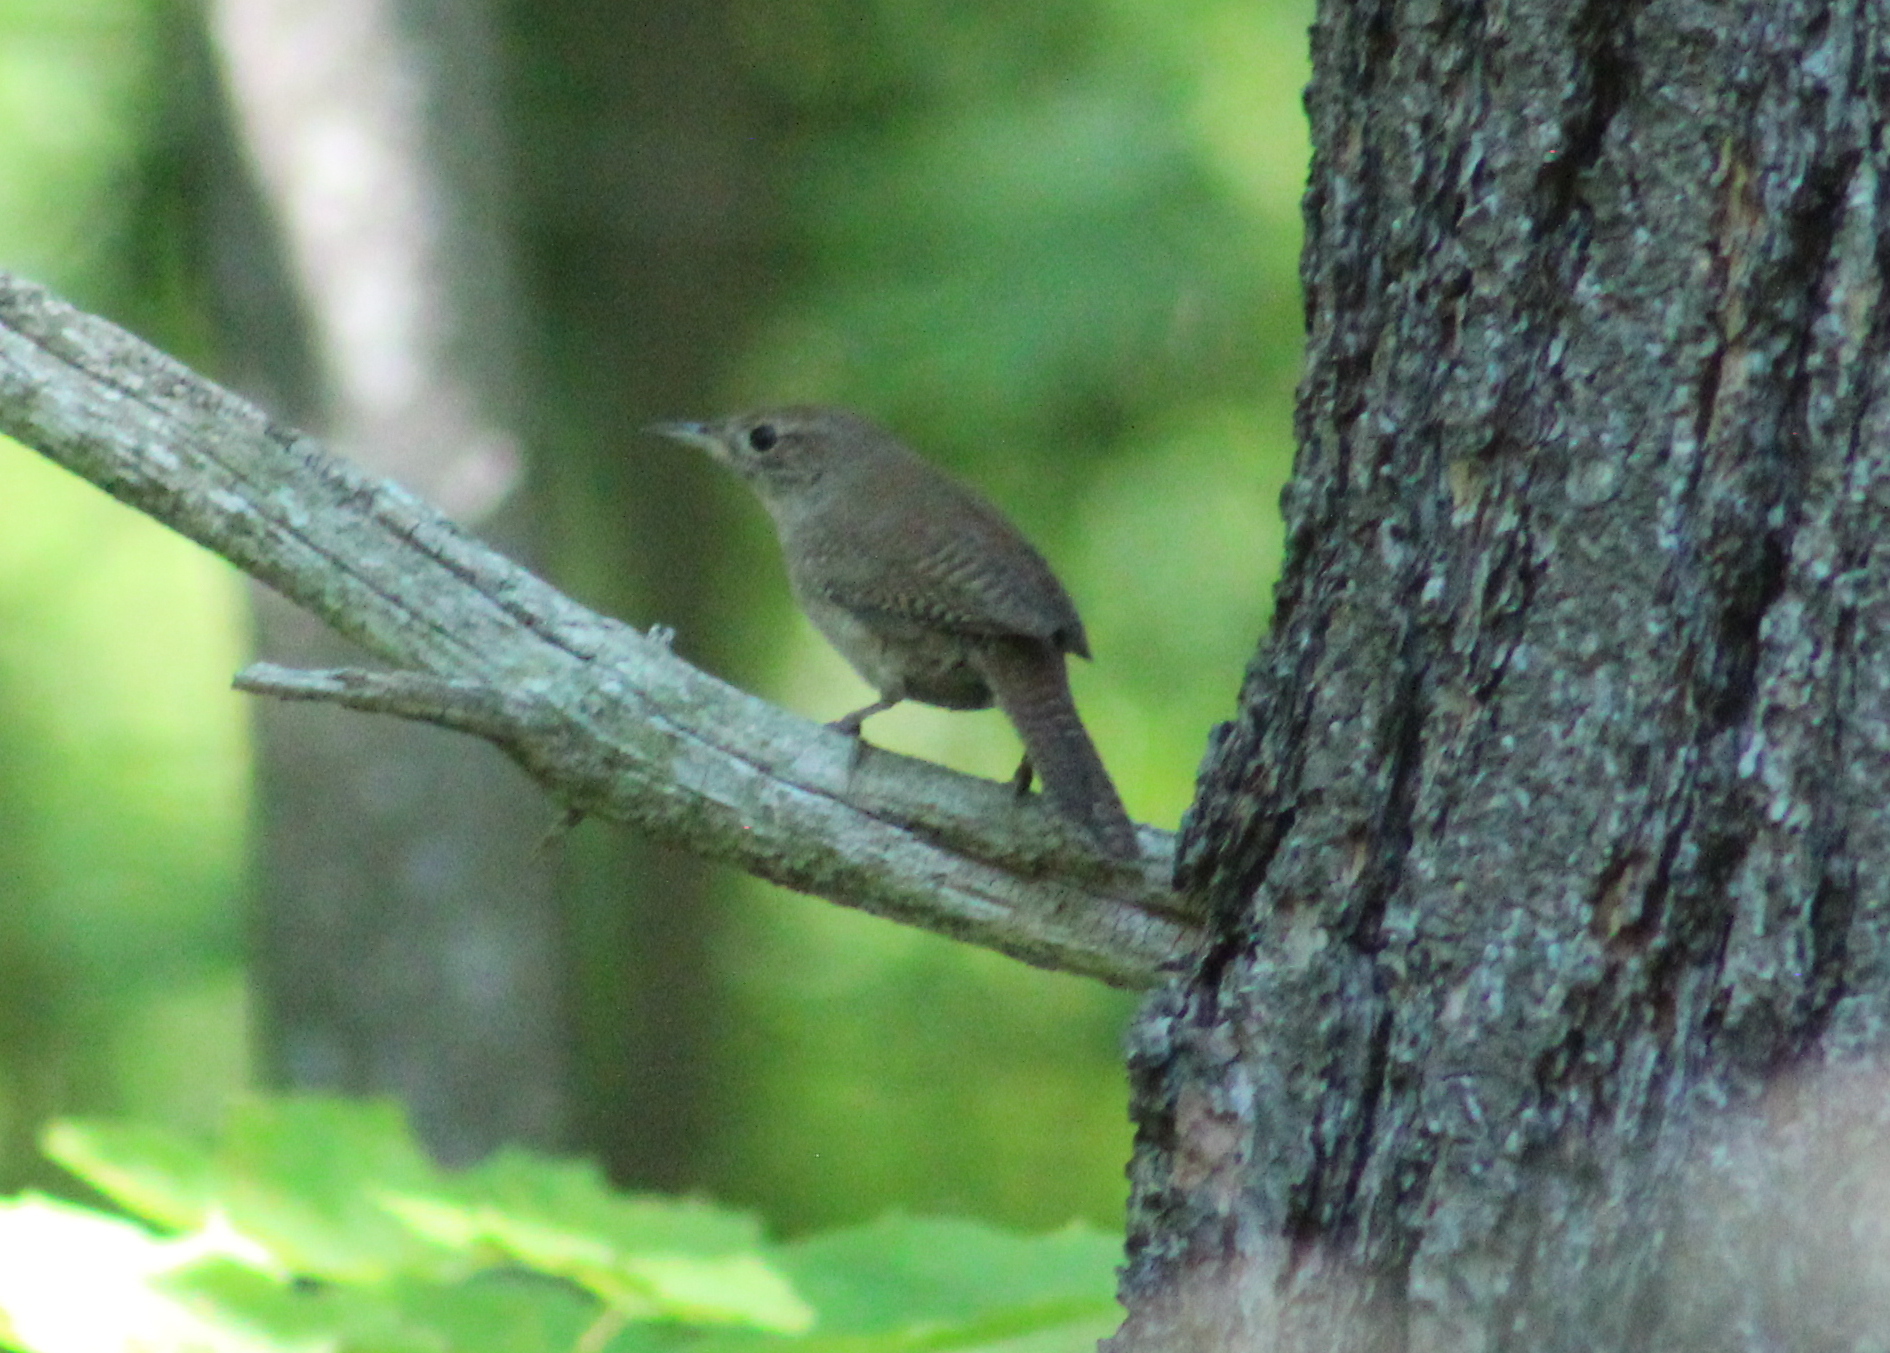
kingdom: Animalia
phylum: Chordata
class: Aves
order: Passeriformes
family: Troglodytidae
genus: Troglodytes
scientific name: Troglodytes aedon
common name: House wren
